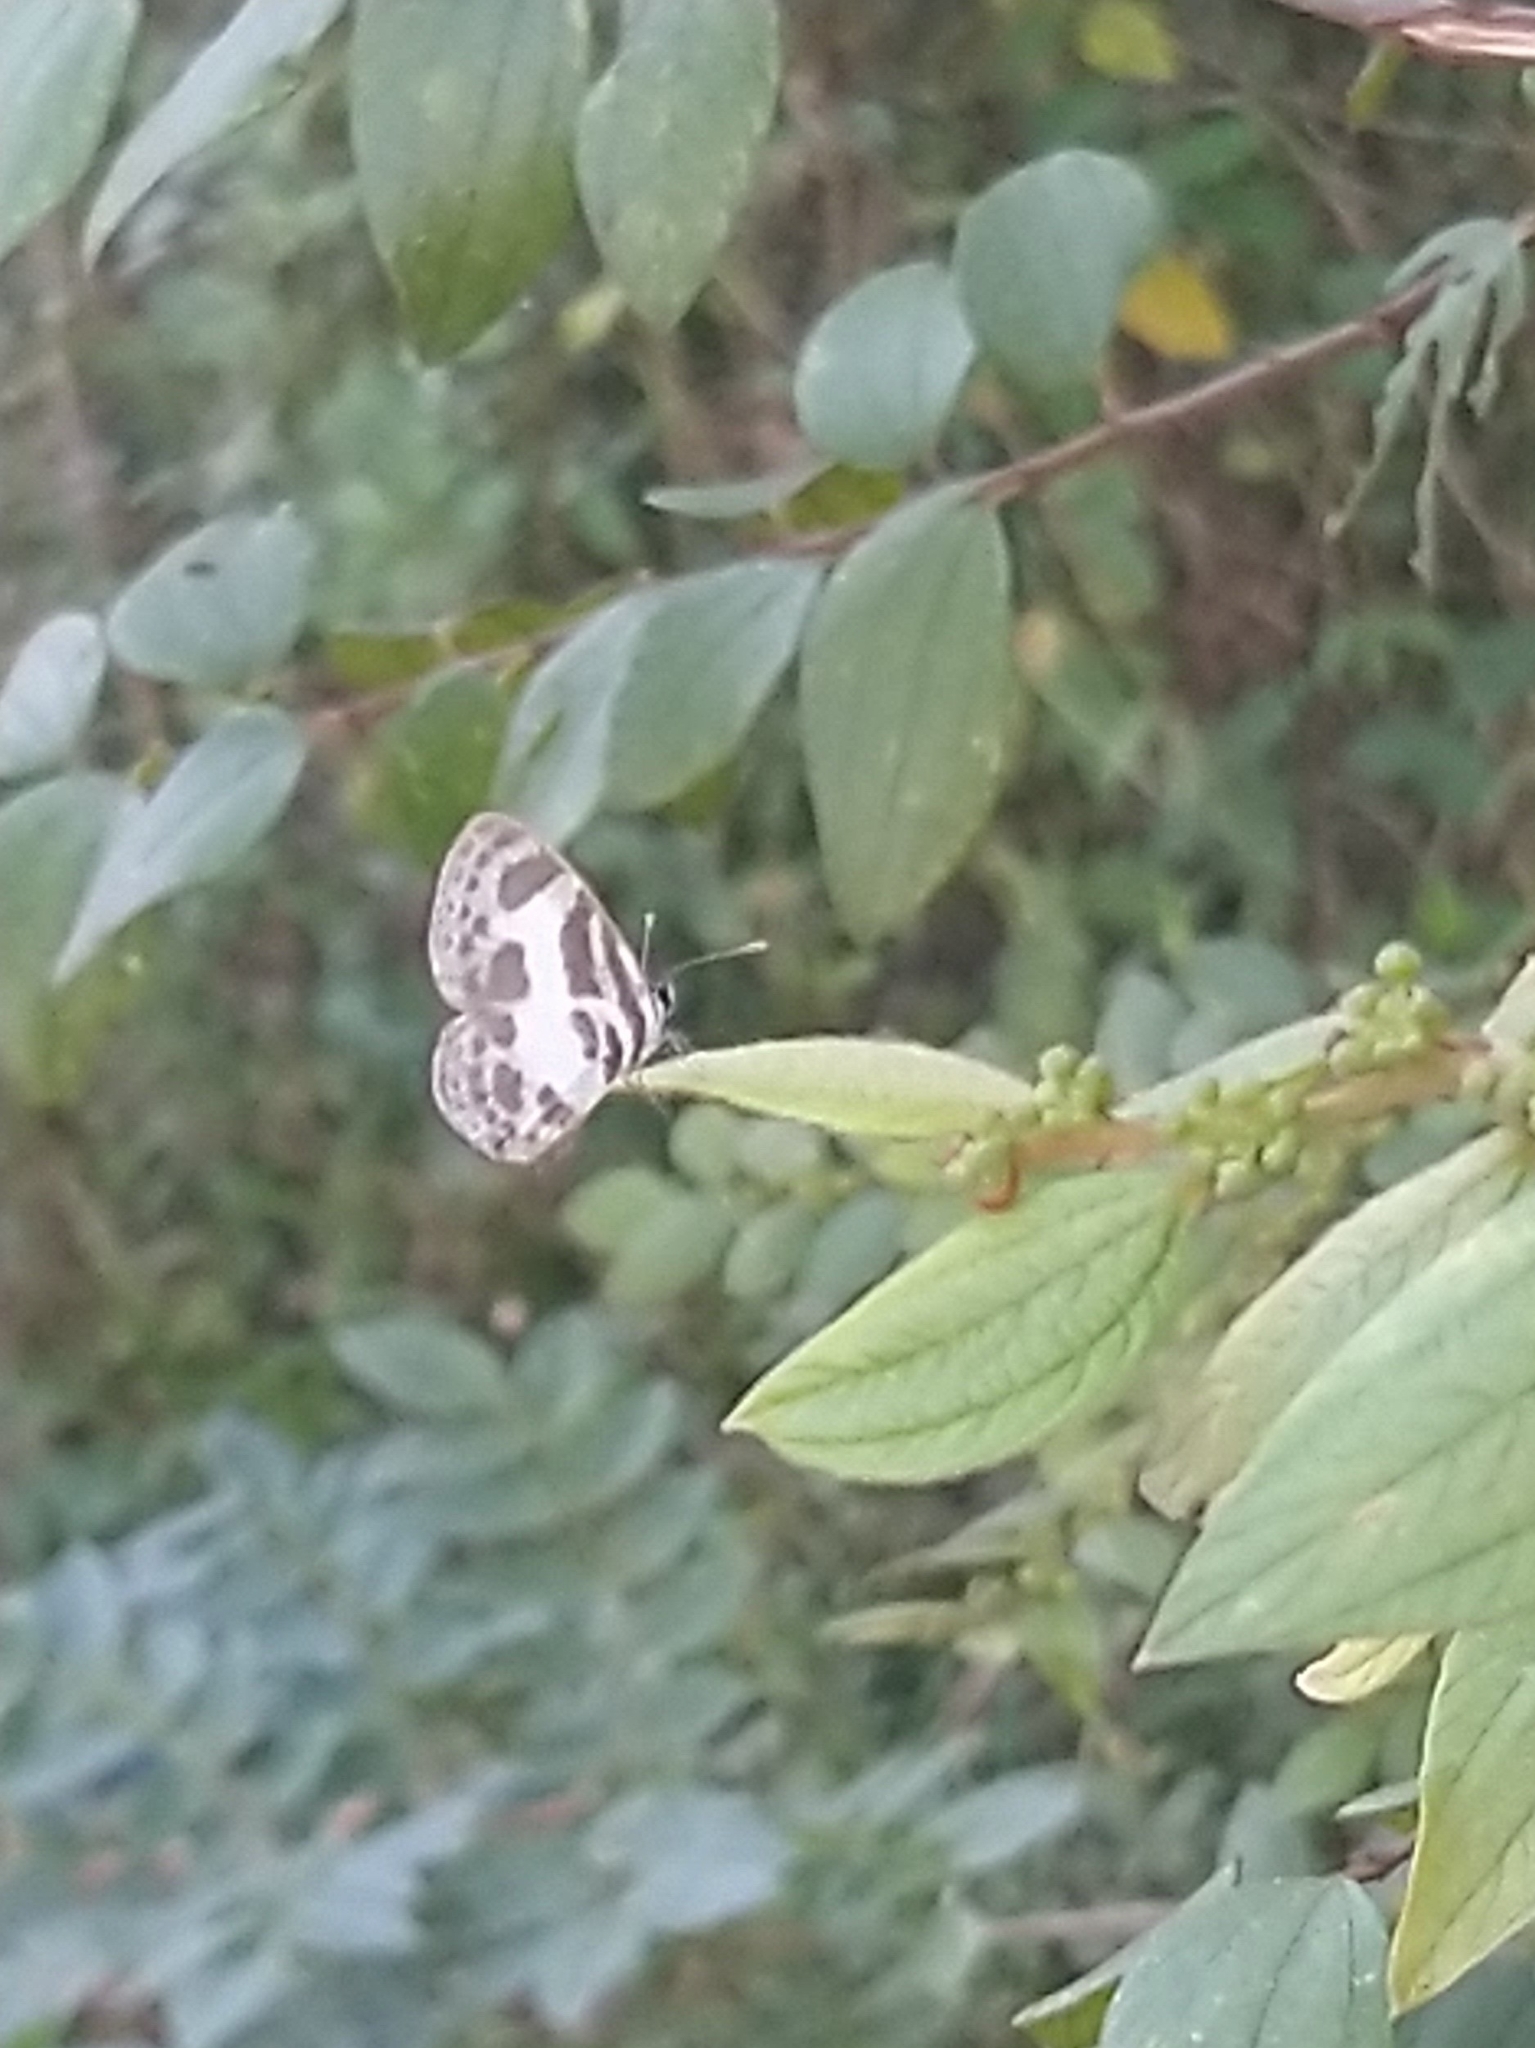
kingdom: Animalia
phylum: Arthropoda
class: Insecta
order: Lepidoptera
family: Lycaenidae
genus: Discolampa
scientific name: Discolampa ethion
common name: Banded blue pierrot
